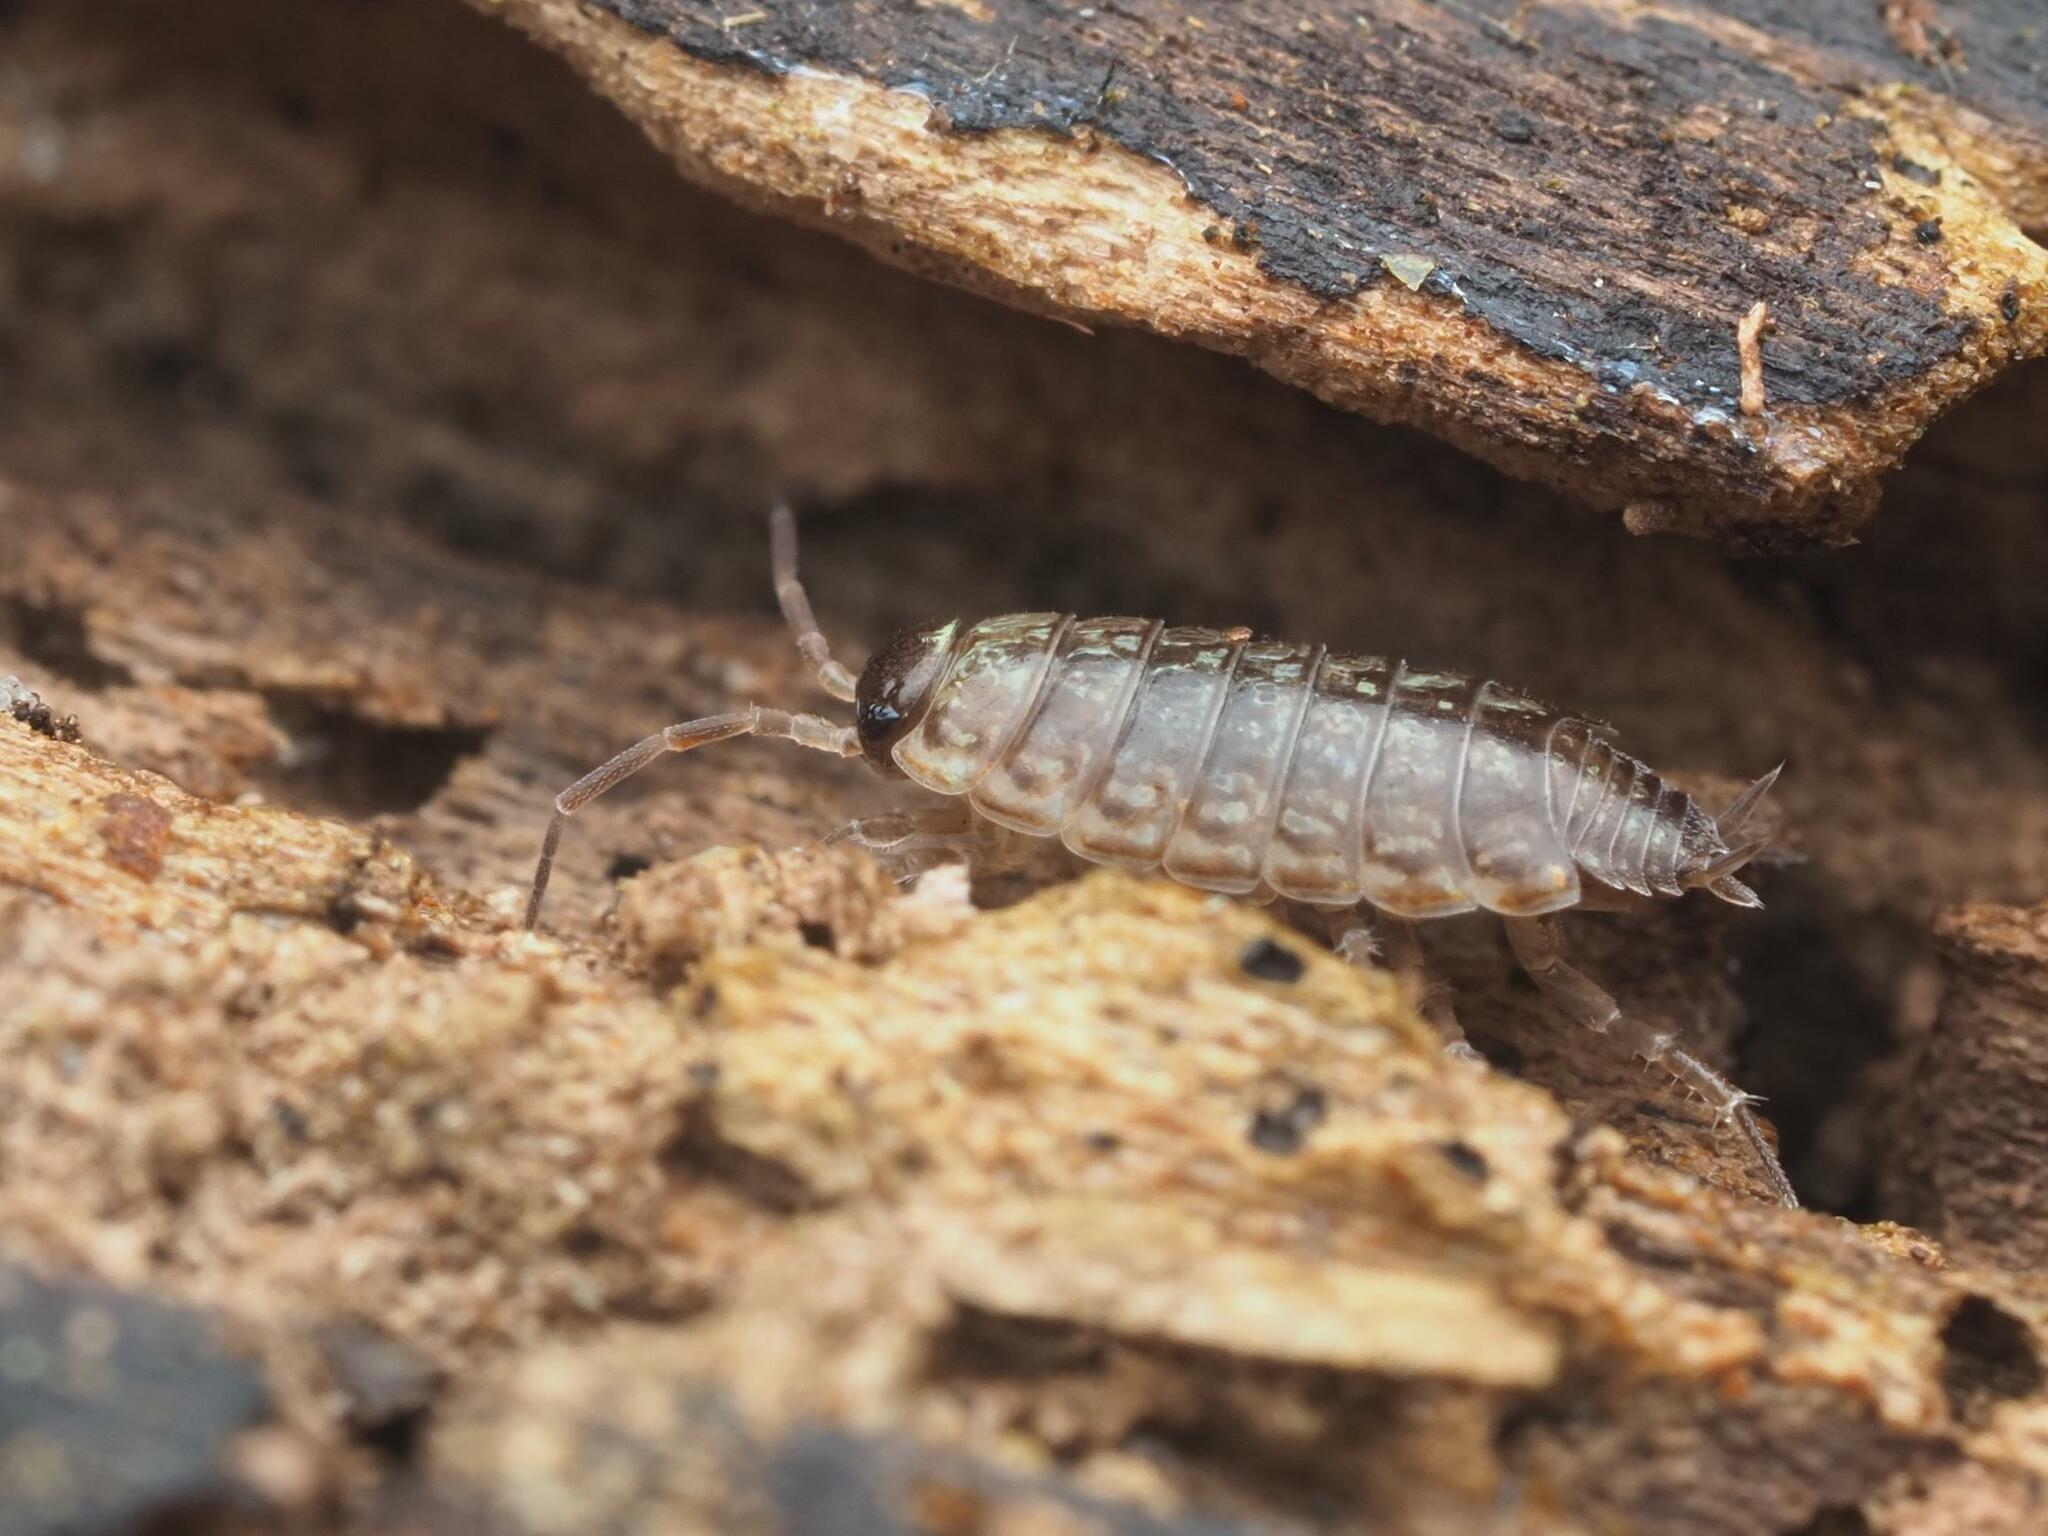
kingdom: Animalia
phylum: Arthropoda
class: Malacostraca
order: Isopoda
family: Philosciidae
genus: Philoscia
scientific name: Philoscia muscorum
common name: Common striped woodlouse
